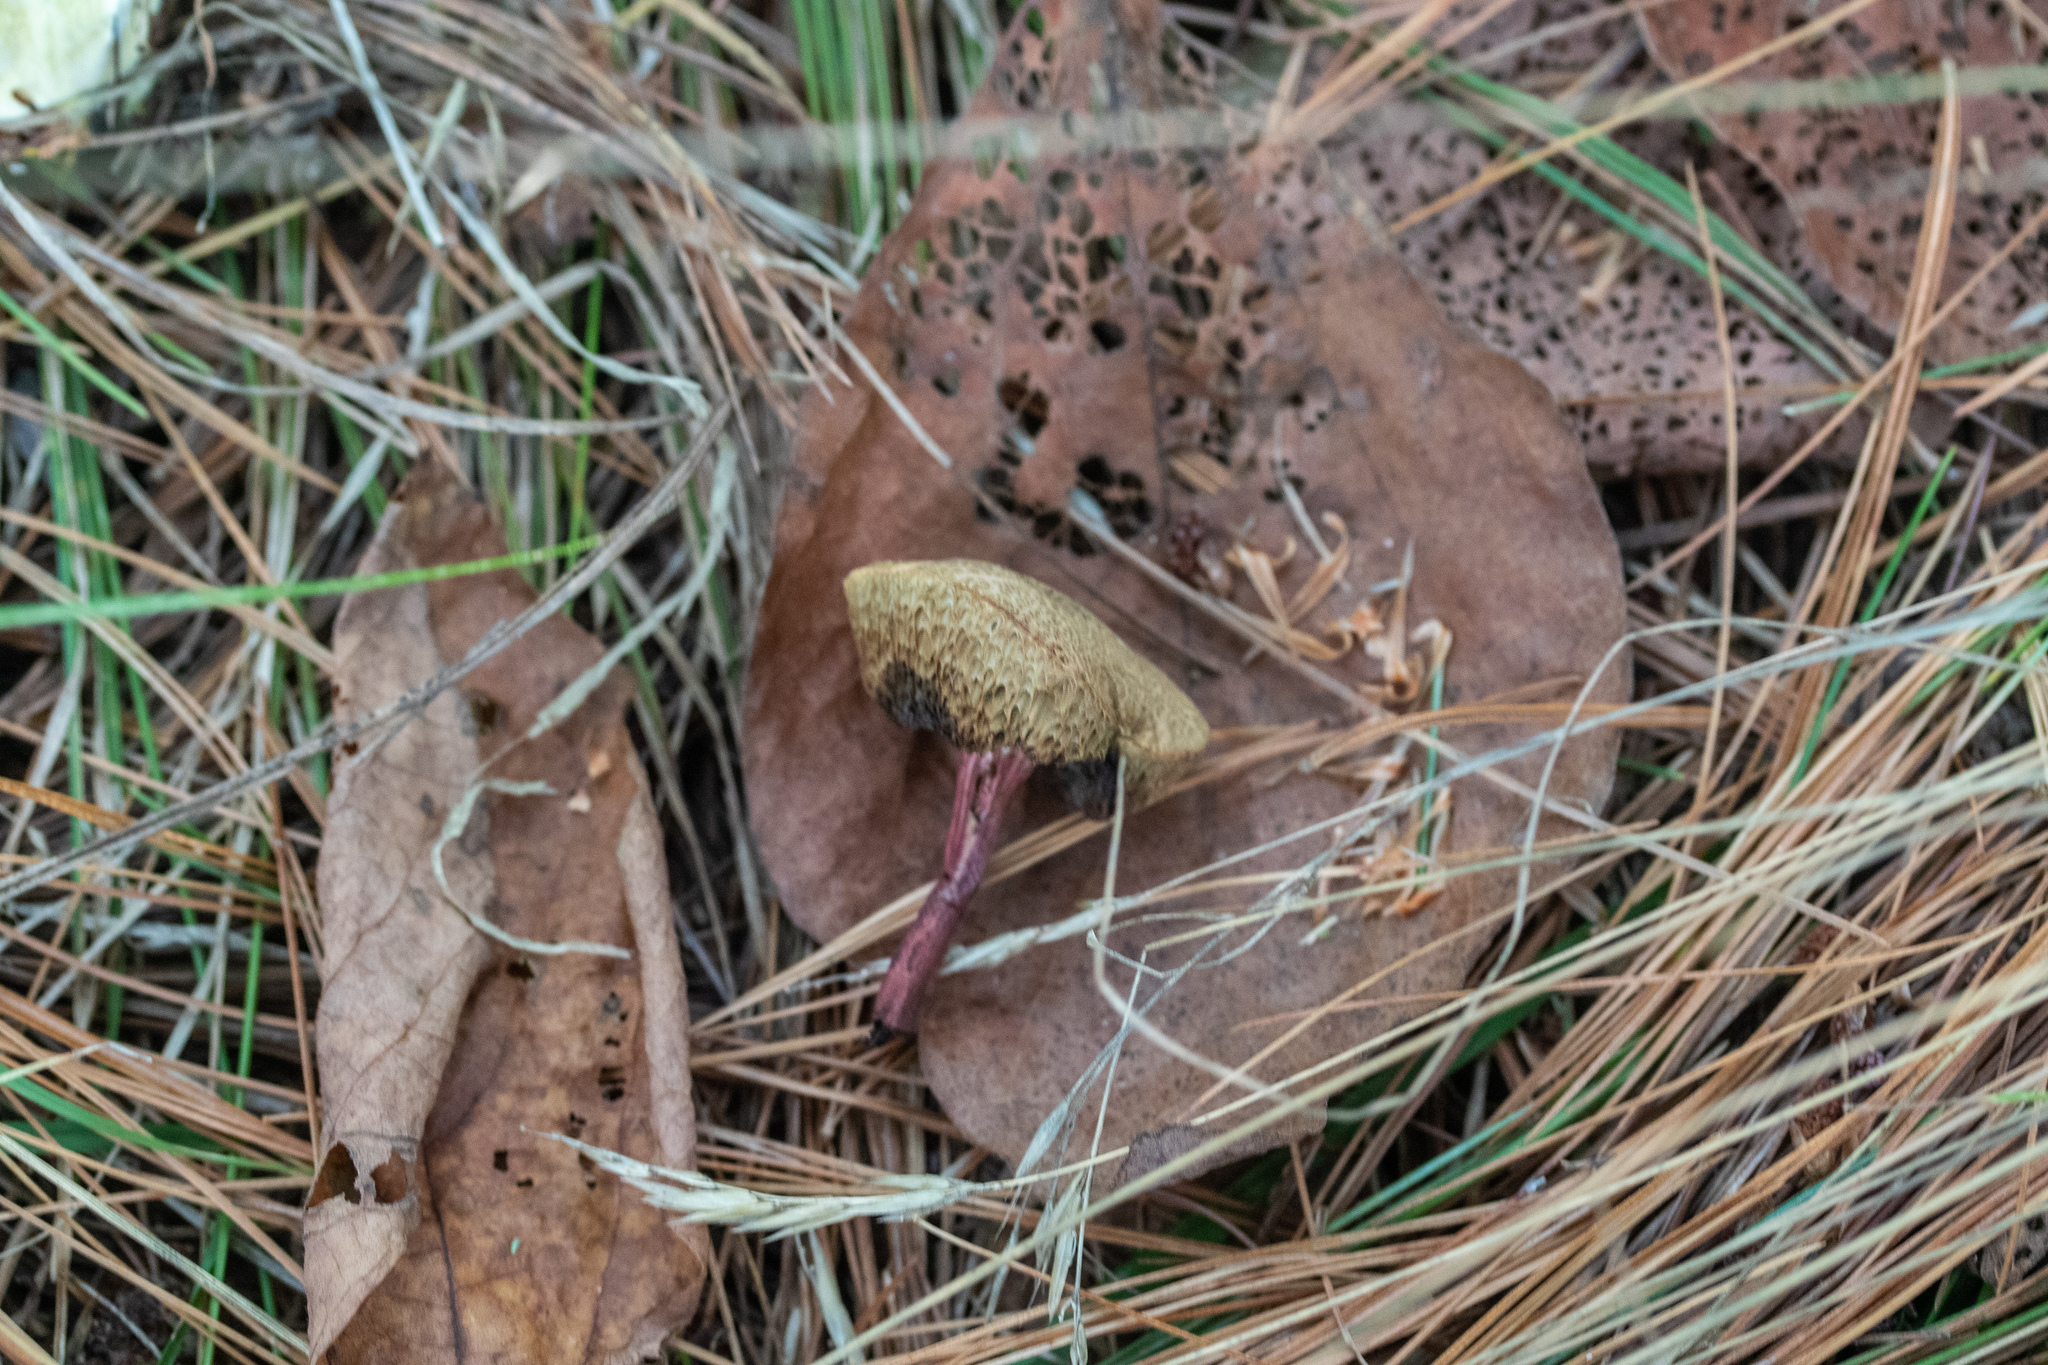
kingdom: Fungi
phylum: Basidiomycota
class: Agaricomycetes
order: Boletales
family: Boletaceae
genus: Xerocomellus
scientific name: Xerocomellus chrysenteron
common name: Red-cracking bolete
